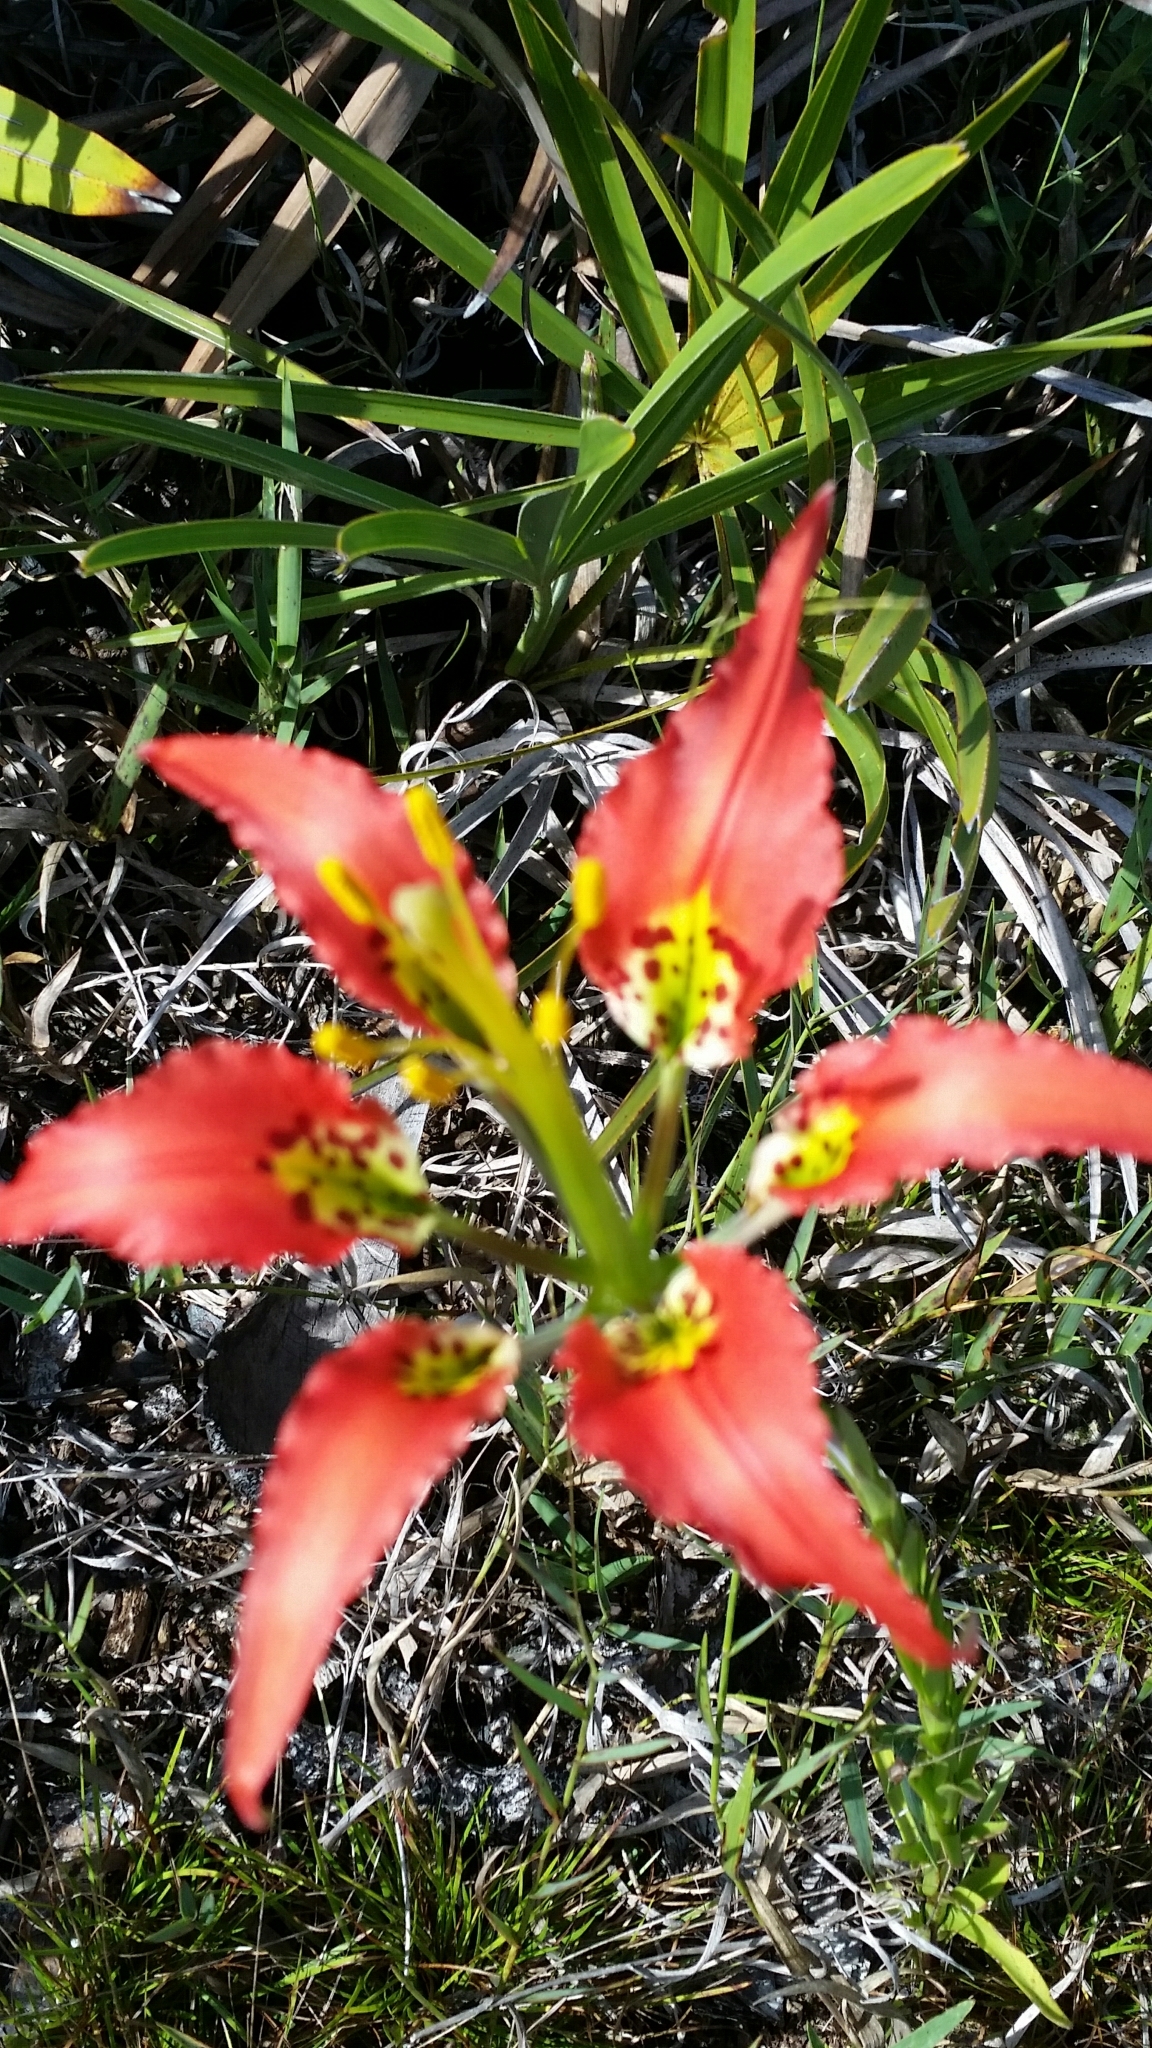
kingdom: Plantae
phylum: Tracheophyta
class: Liliopsida
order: Liliales
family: Liliaceae
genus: Lilium
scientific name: Lilium catesbaei
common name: Catesby's lily
